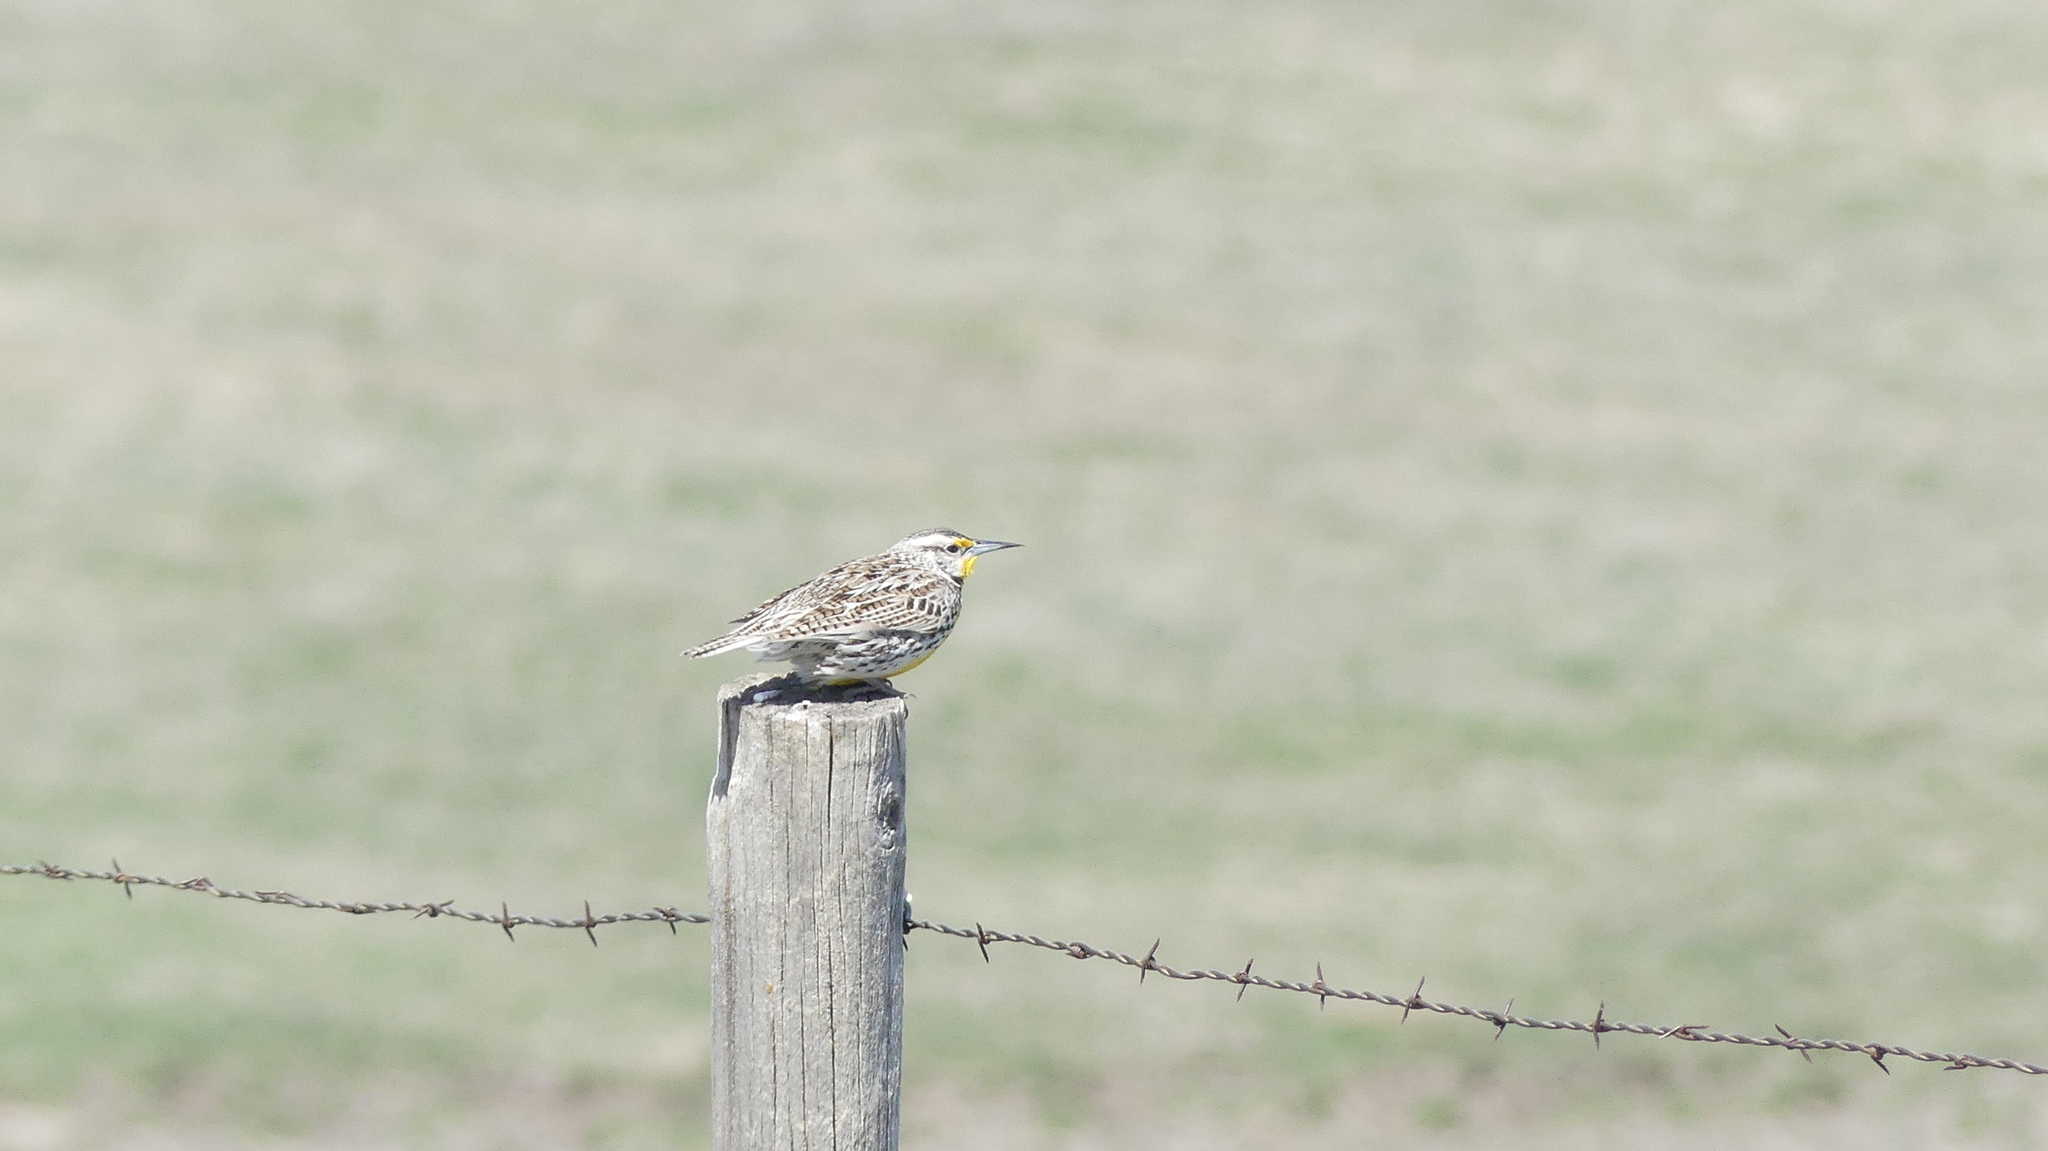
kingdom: Animalia
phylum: Chordata
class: Aves
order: Passeriformes
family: Icteridae
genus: Sturnella
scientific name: Sturnella neglecta
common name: Western meadowlark
